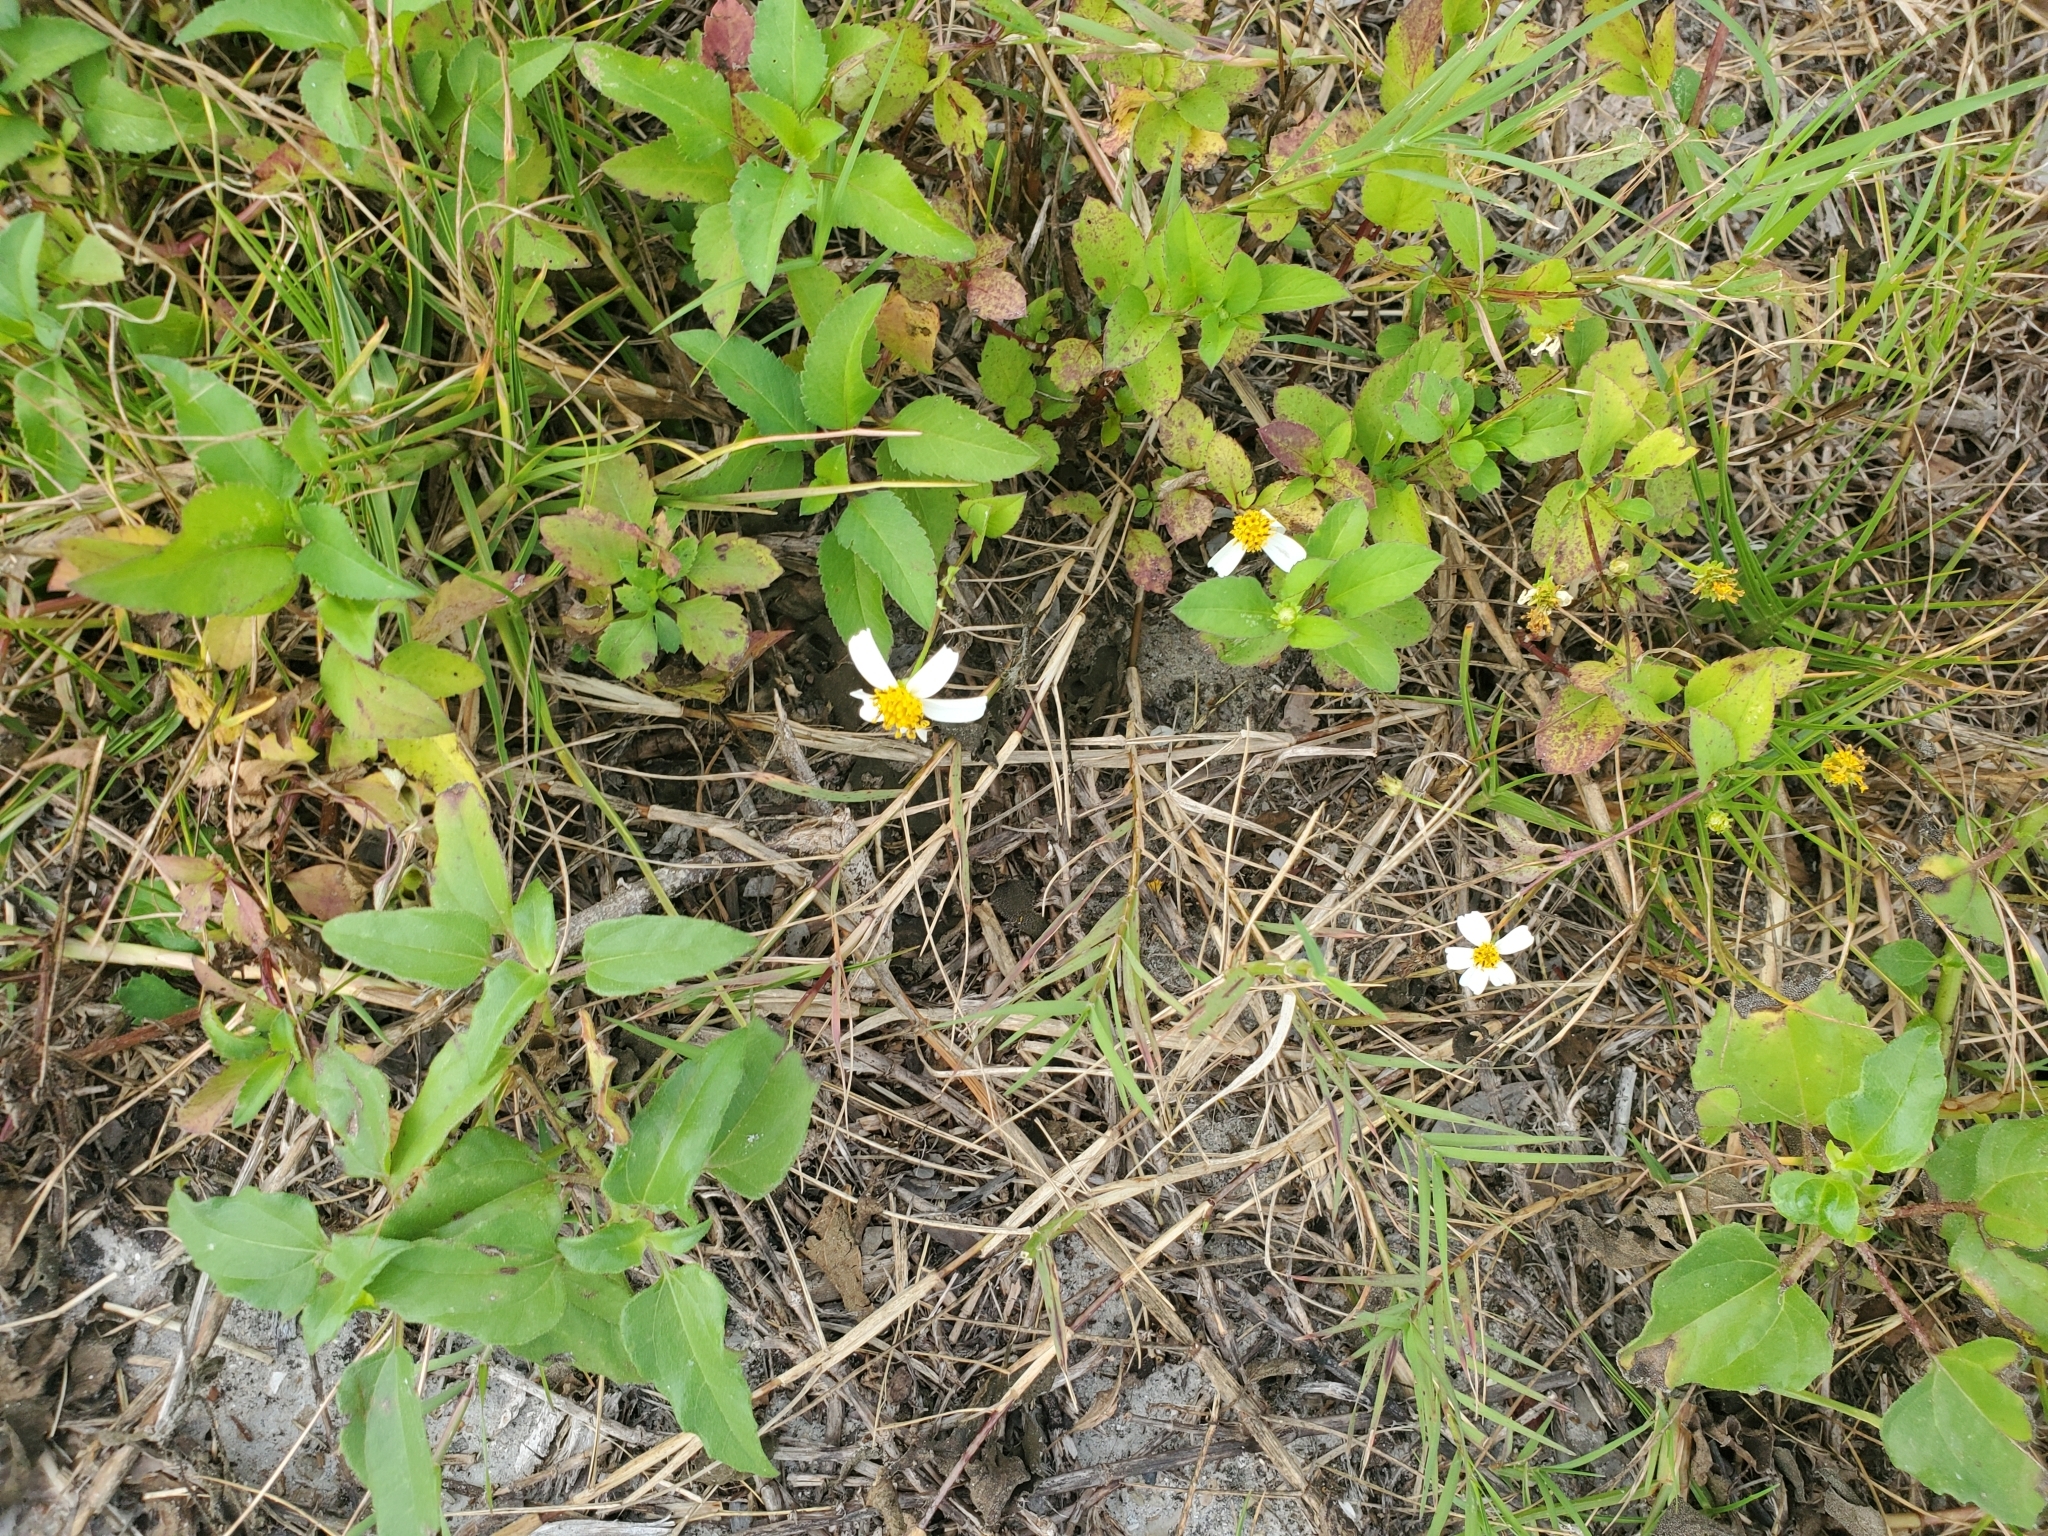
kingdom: Plantae
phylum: Tracheophyta
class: Magnoliopsida
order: Asterales
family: Asteraceae
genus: Bidens
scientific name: Bidens alba
